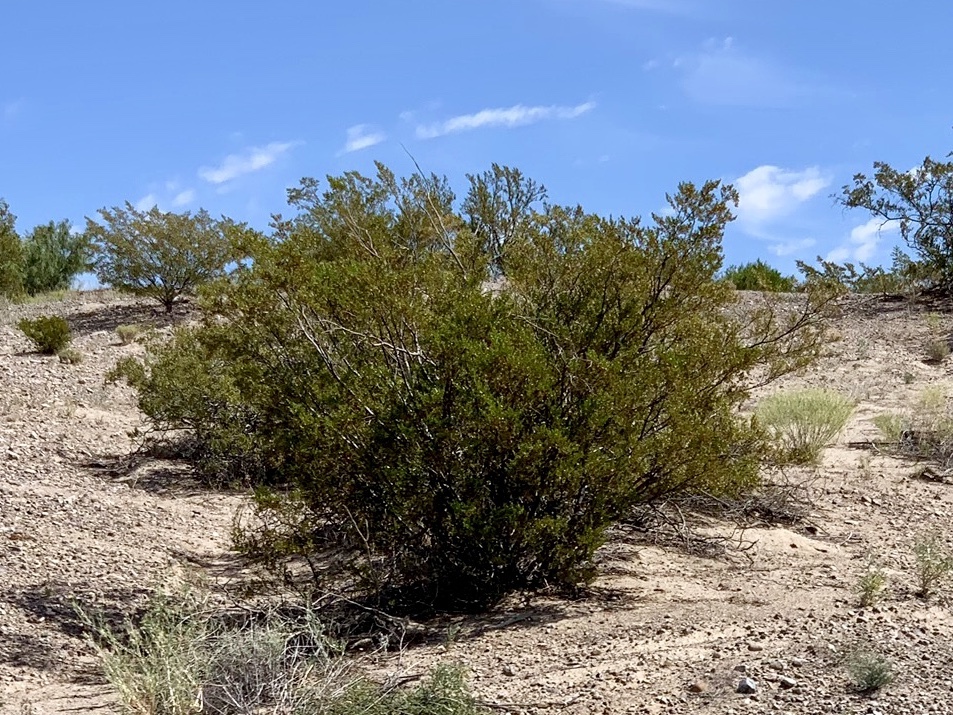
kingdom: Plantae
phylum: Tracheophyta
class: Magnoliopsida
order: Zygophyllales
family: Zygophyllaceae
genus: Larrea
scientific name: Larrea tridentata
